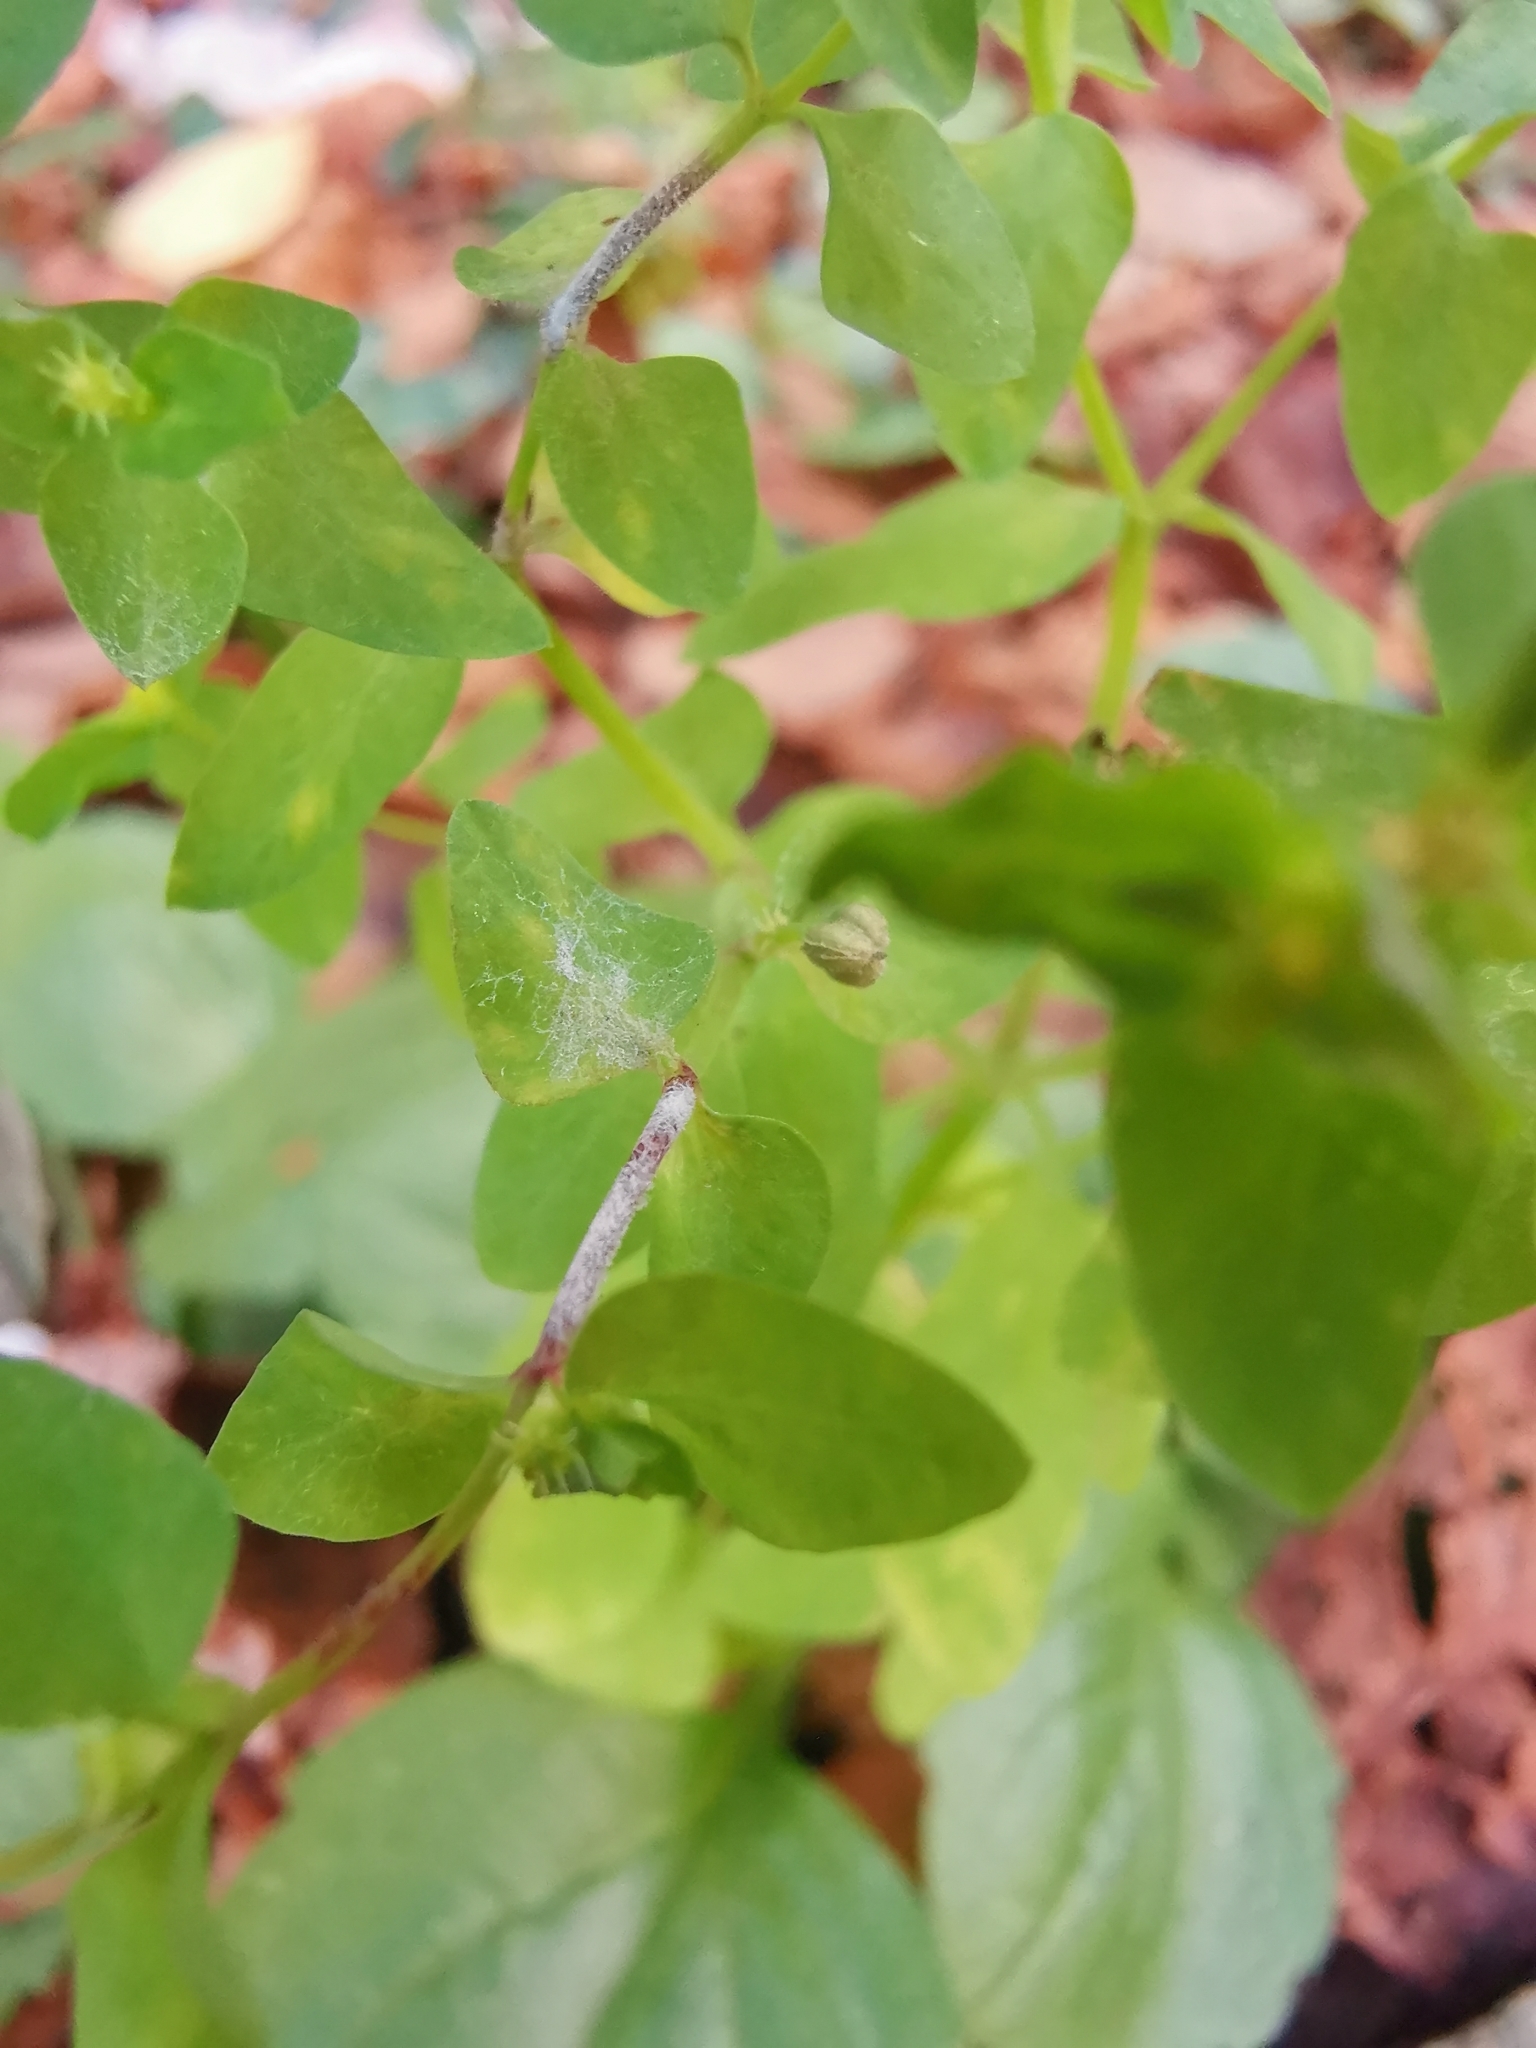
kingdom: Fungi
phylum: Ascomycota
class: Leotiomycetes
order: Helotiales
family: Erysiphaceae
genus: Podosphaera
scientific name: Podosphaera euphorbiae
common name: Eurasian poinsettia powdery mildew
